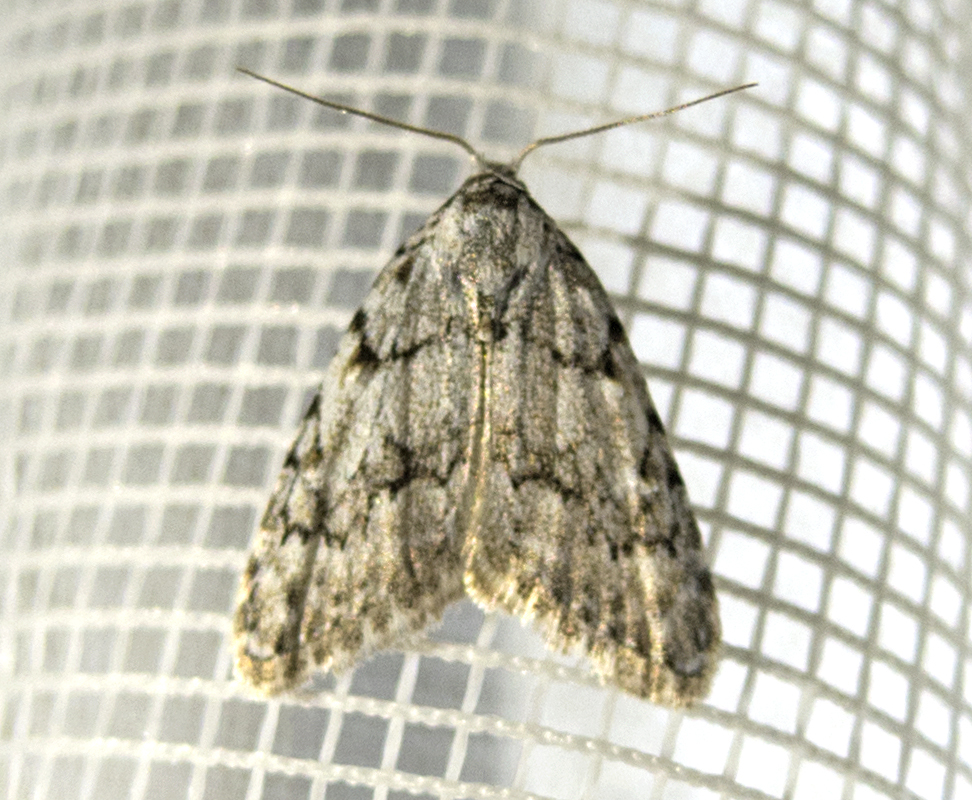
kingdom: Animalia
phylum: Arthropoda
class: Insecta
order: Lepidoptera
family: Nolidae
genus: Nola
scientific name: Nola cicatricalis
